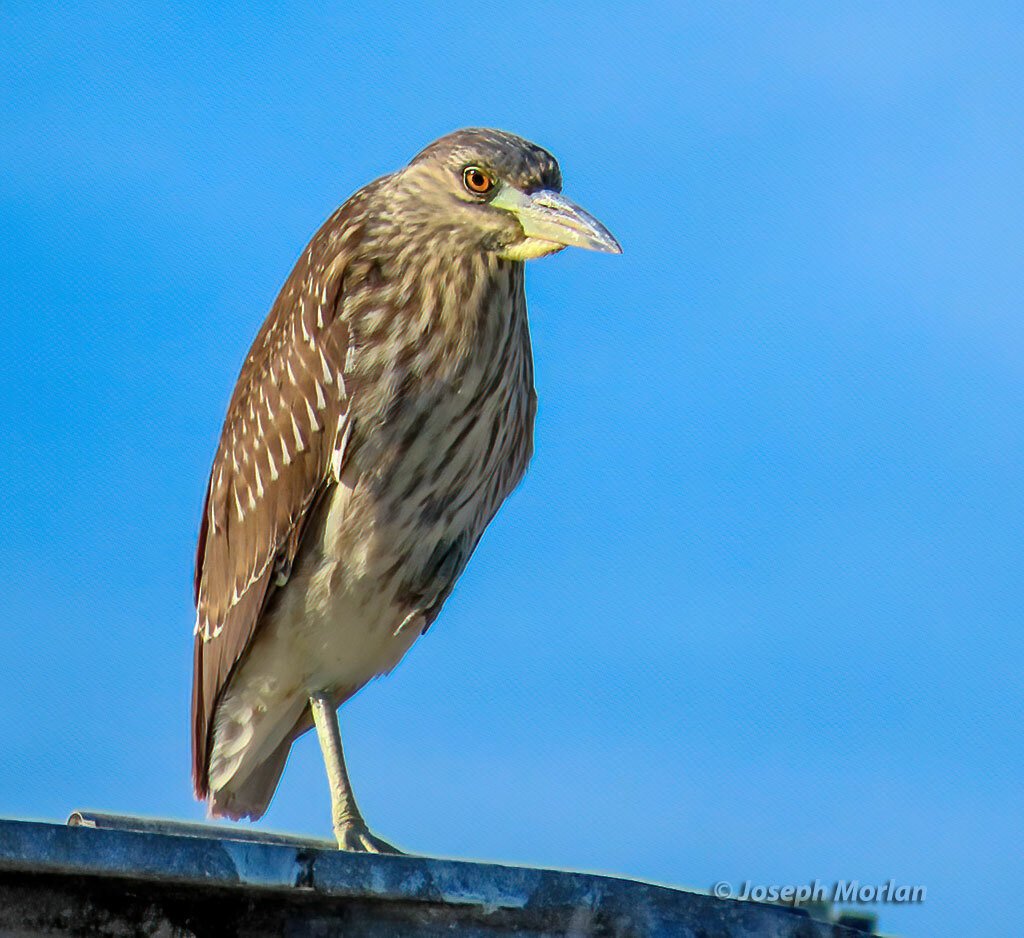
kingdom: Animalia
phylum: Chordata
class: Aves
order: Pelecaniformes
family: Ardeidae
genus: Nycticorax
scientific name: Nycticorax nycticorax
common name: Black-crowned night heron
